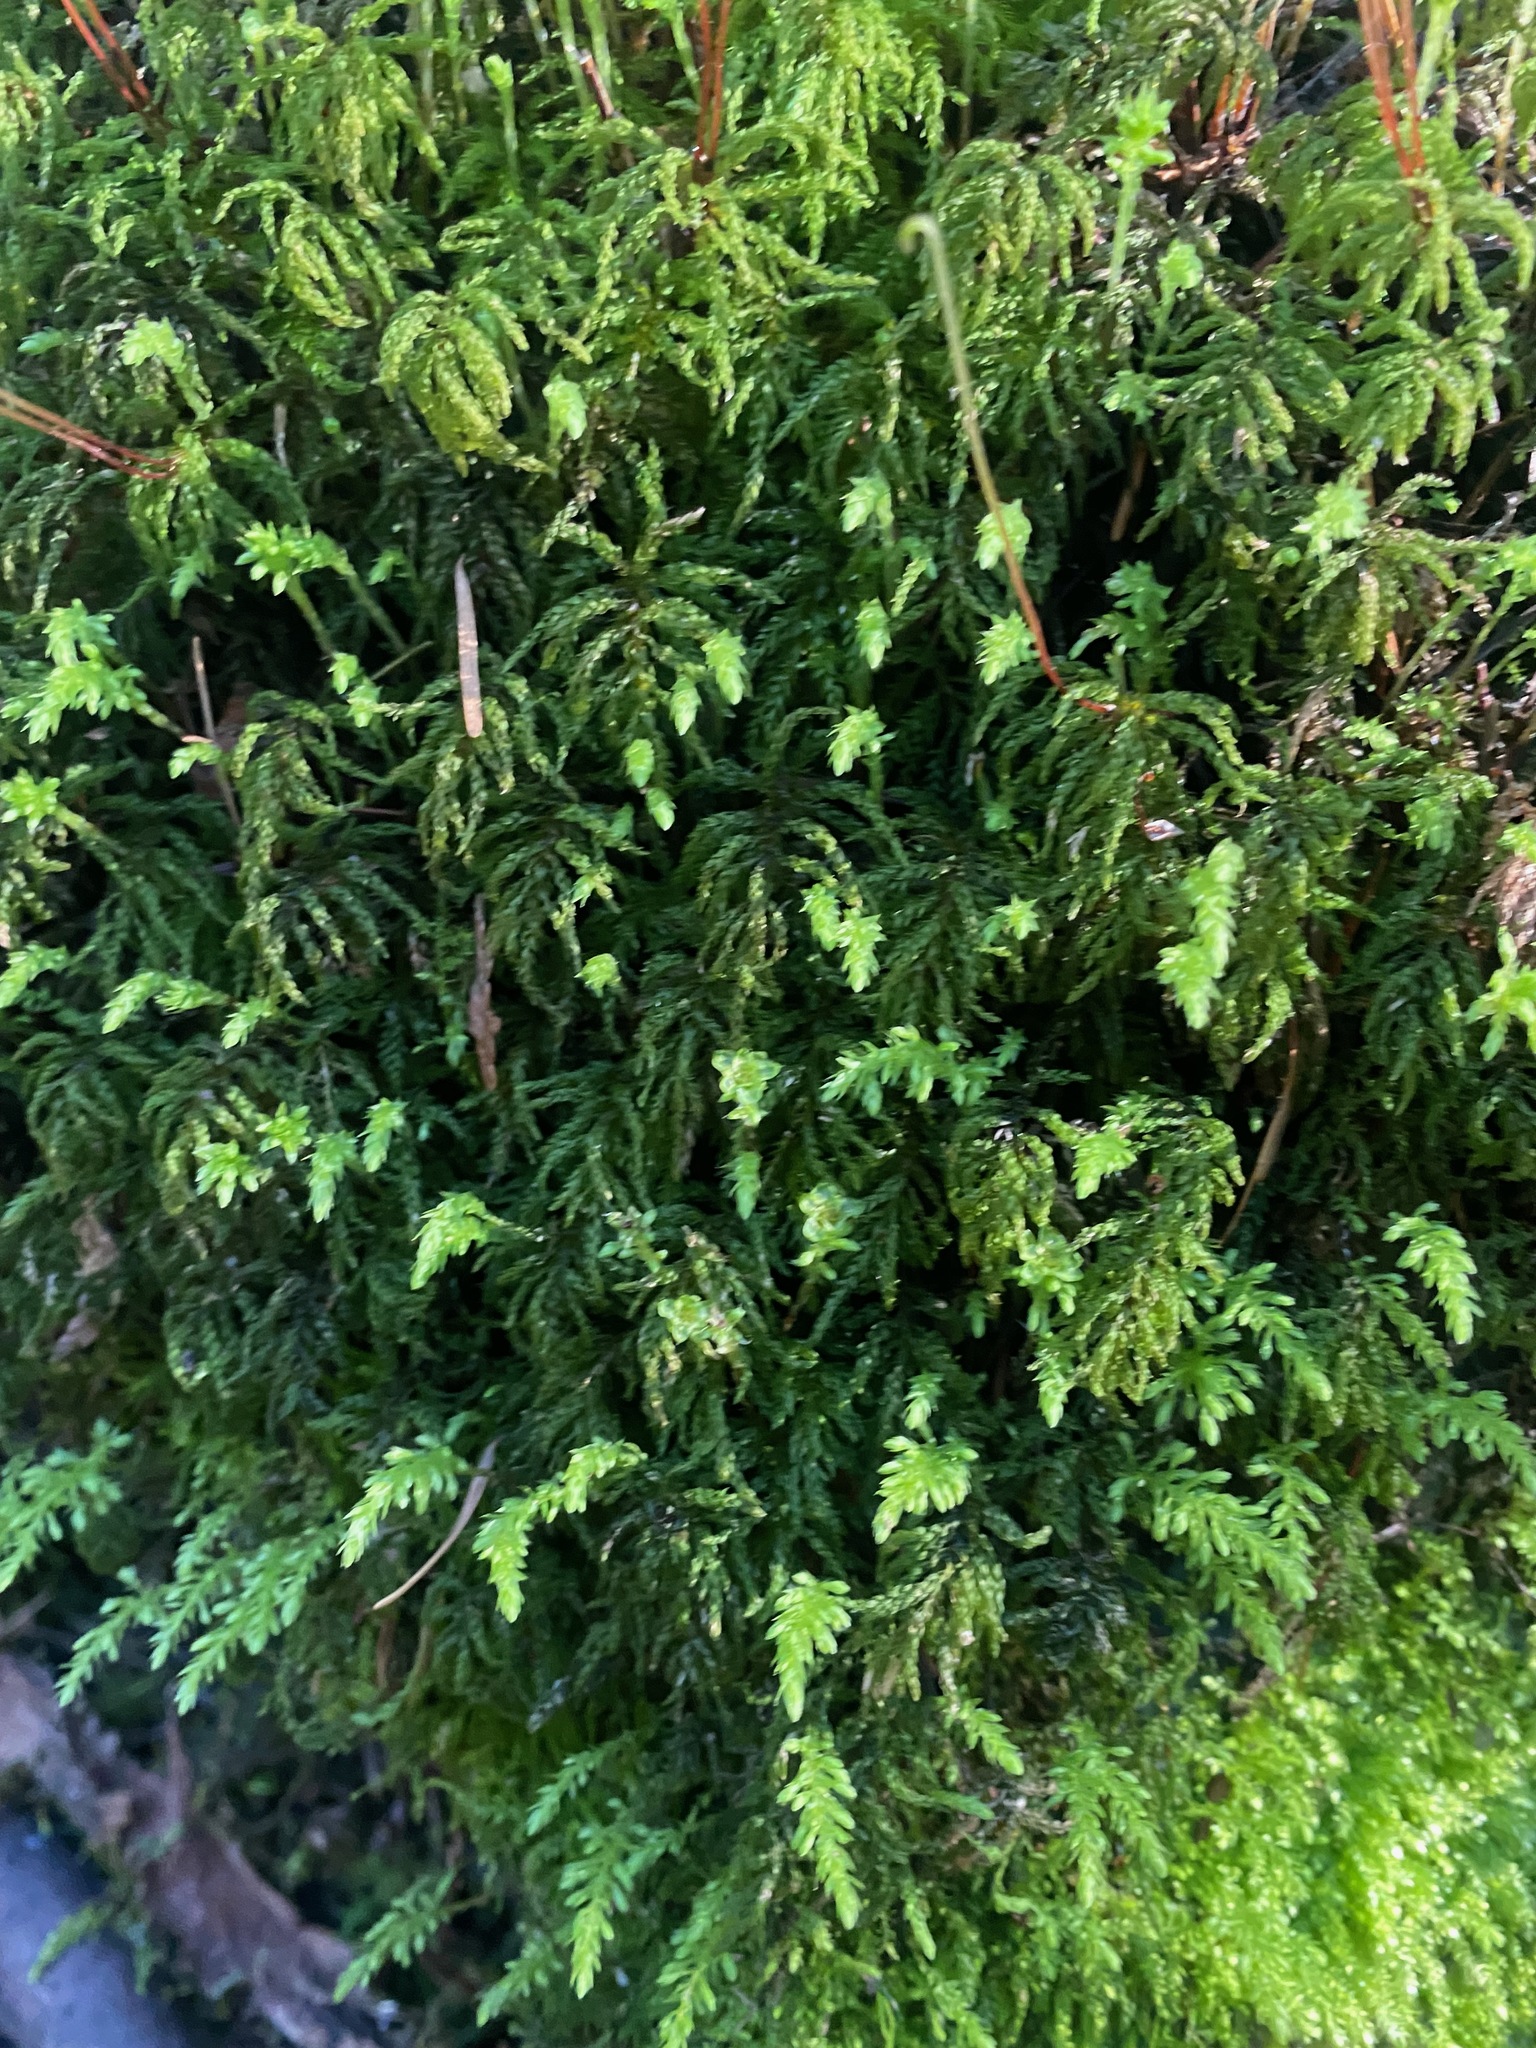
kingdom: Plantae
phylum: Bryophyta
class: Bryopsida
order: Bryales
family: Mniaceae
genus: Leucolepis
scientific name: Leucolepis acanthoneura
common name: Leucolepis umbrella moss
